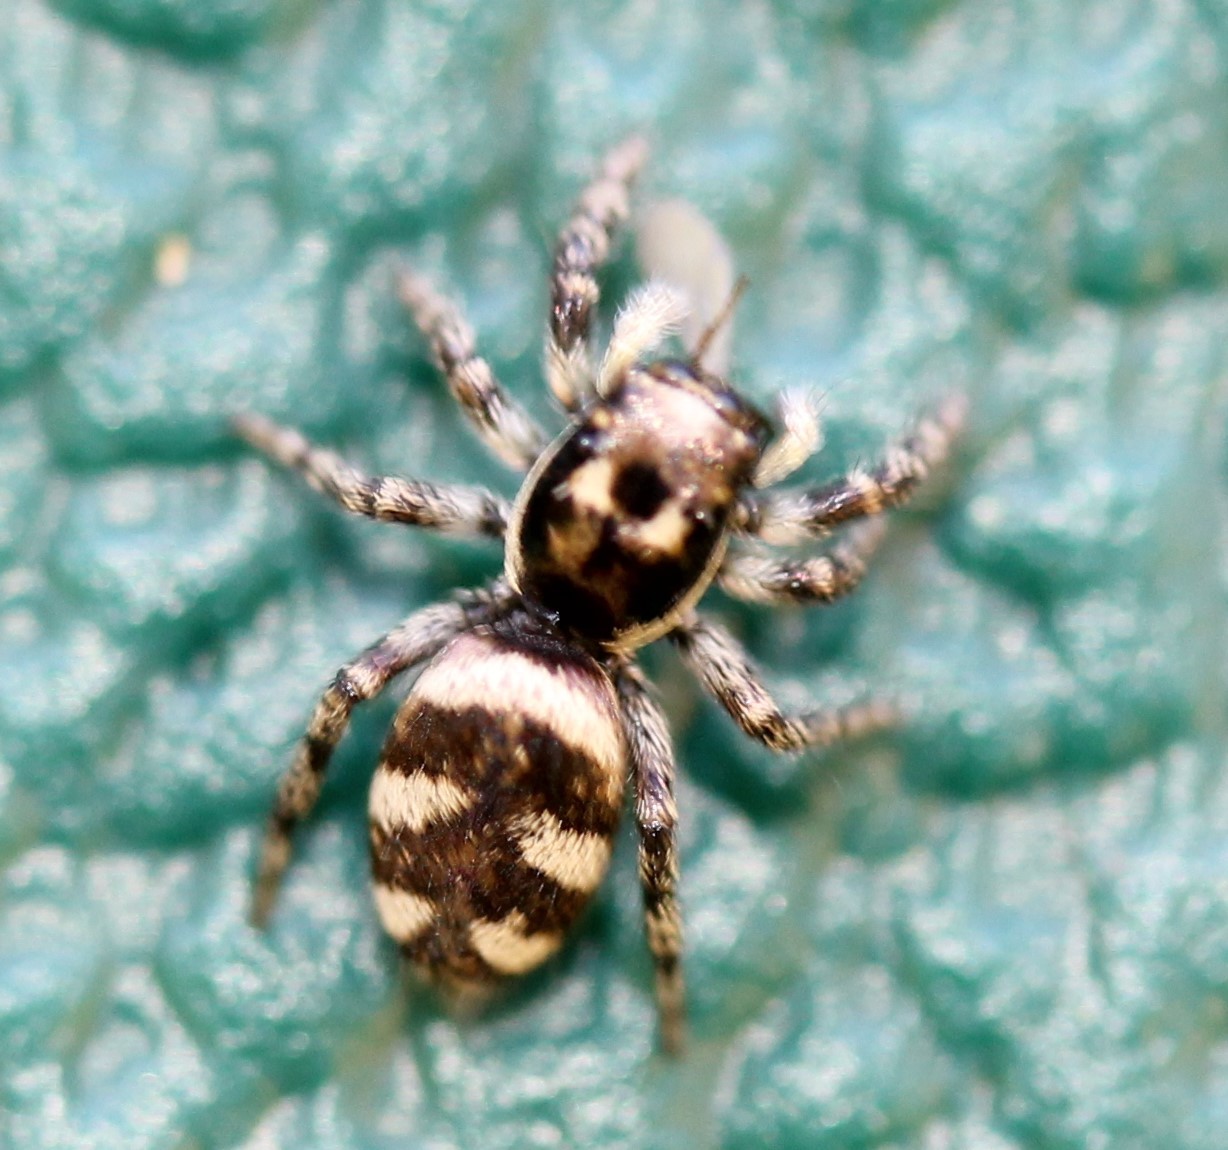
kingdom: Animalia
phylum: Arthropoda
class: Arachnida
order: Araneae
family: Salticidae
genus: Salticus
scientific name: Salticus scenicus
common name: Zebra jumper
